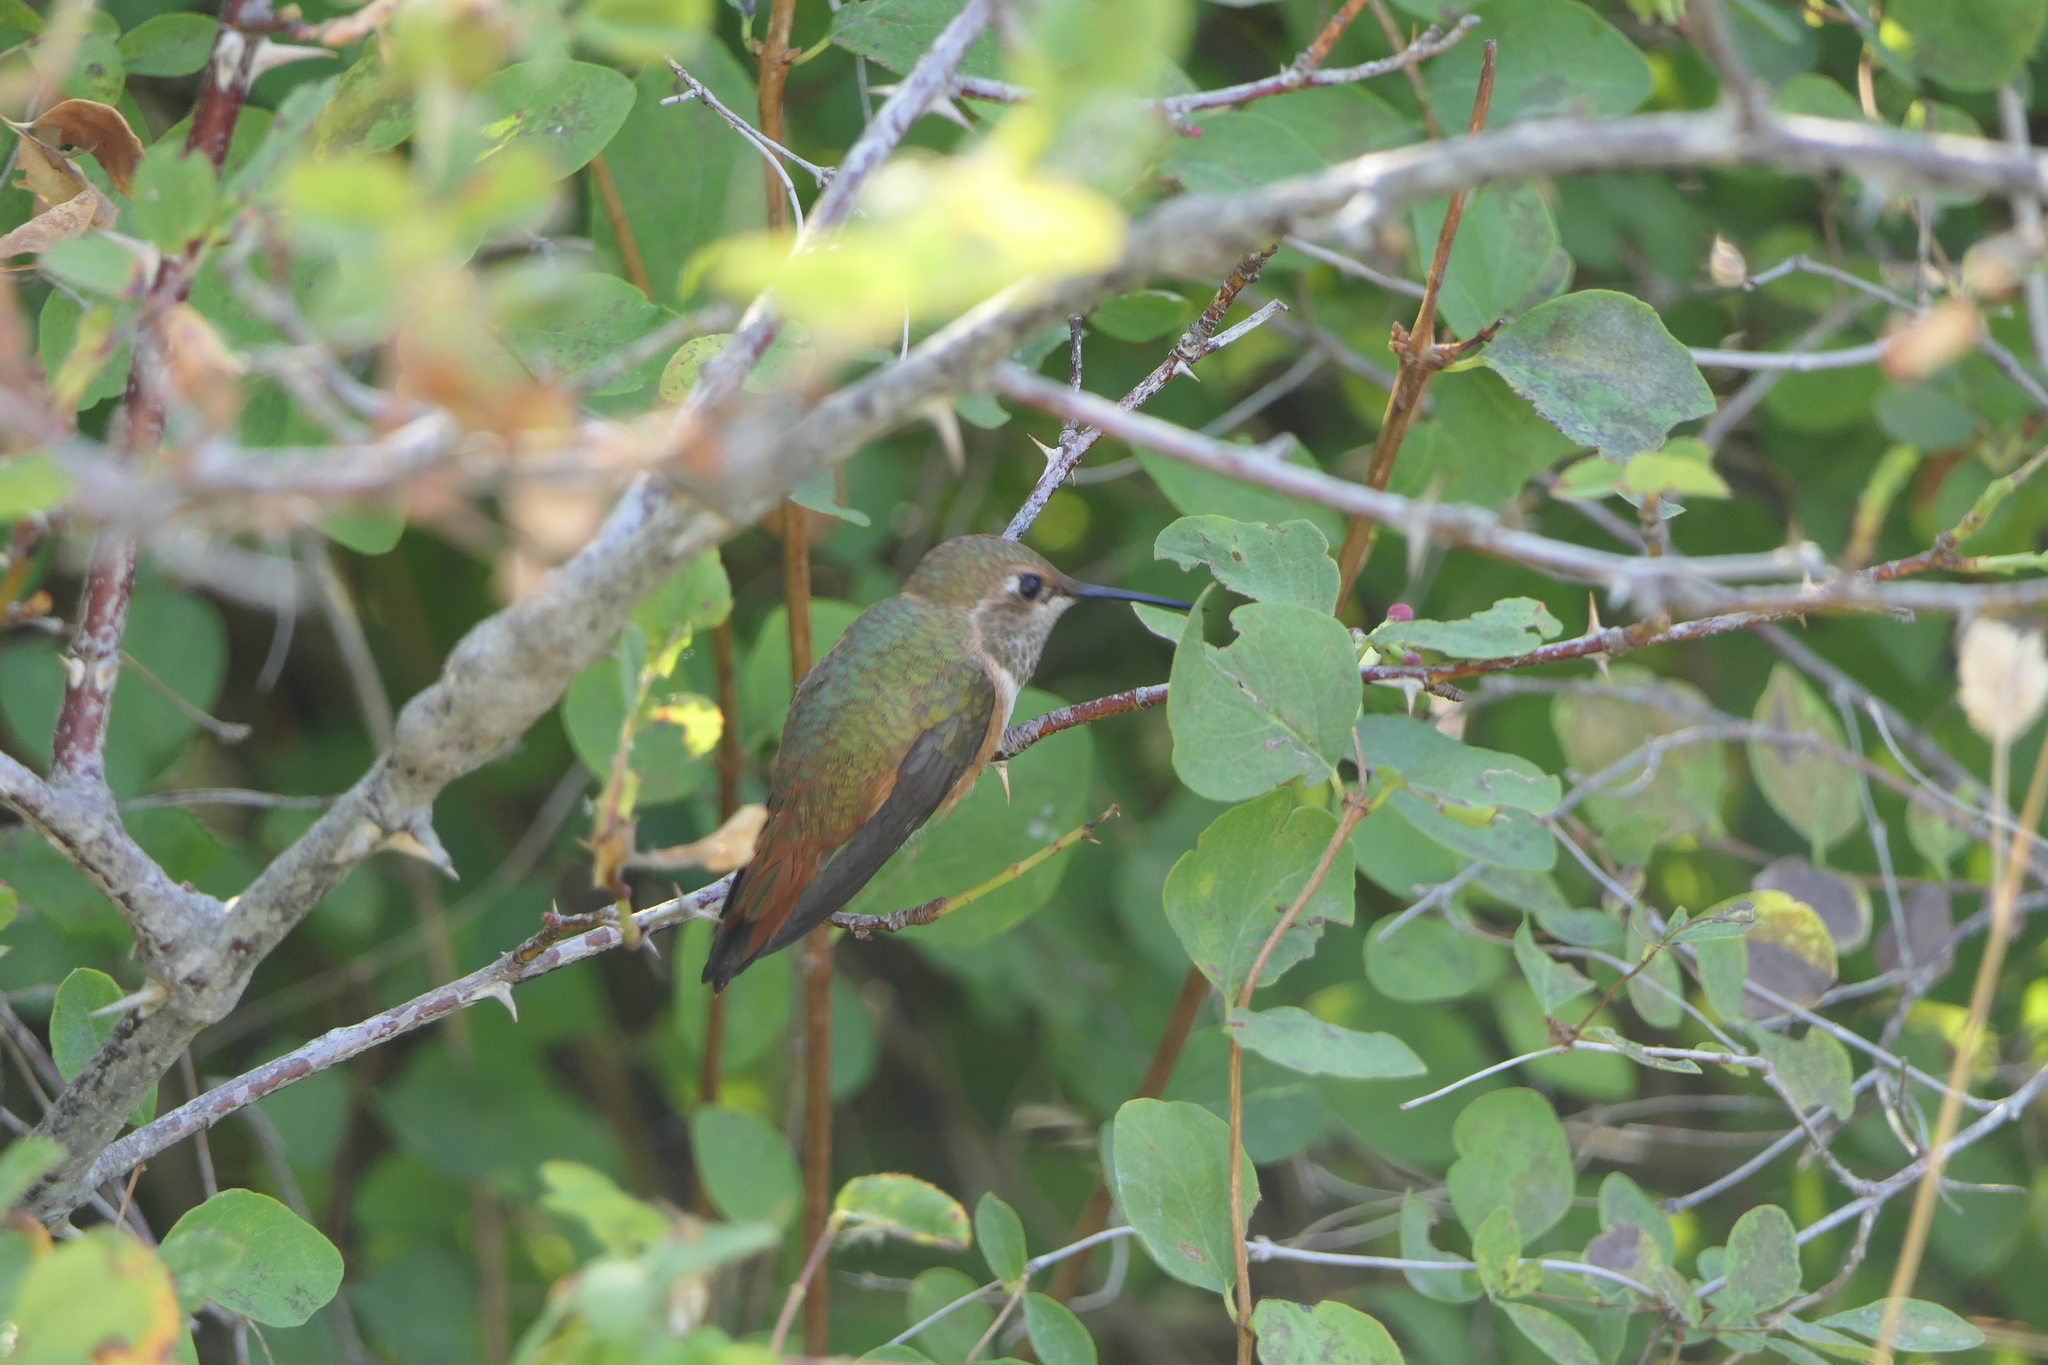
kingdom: Animalia
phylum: Chordata
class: Aves
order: Apodiformes
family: Trochilidae
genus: Selasphorus
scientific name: Selasphorus rufus
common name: Rufous hummingbird
